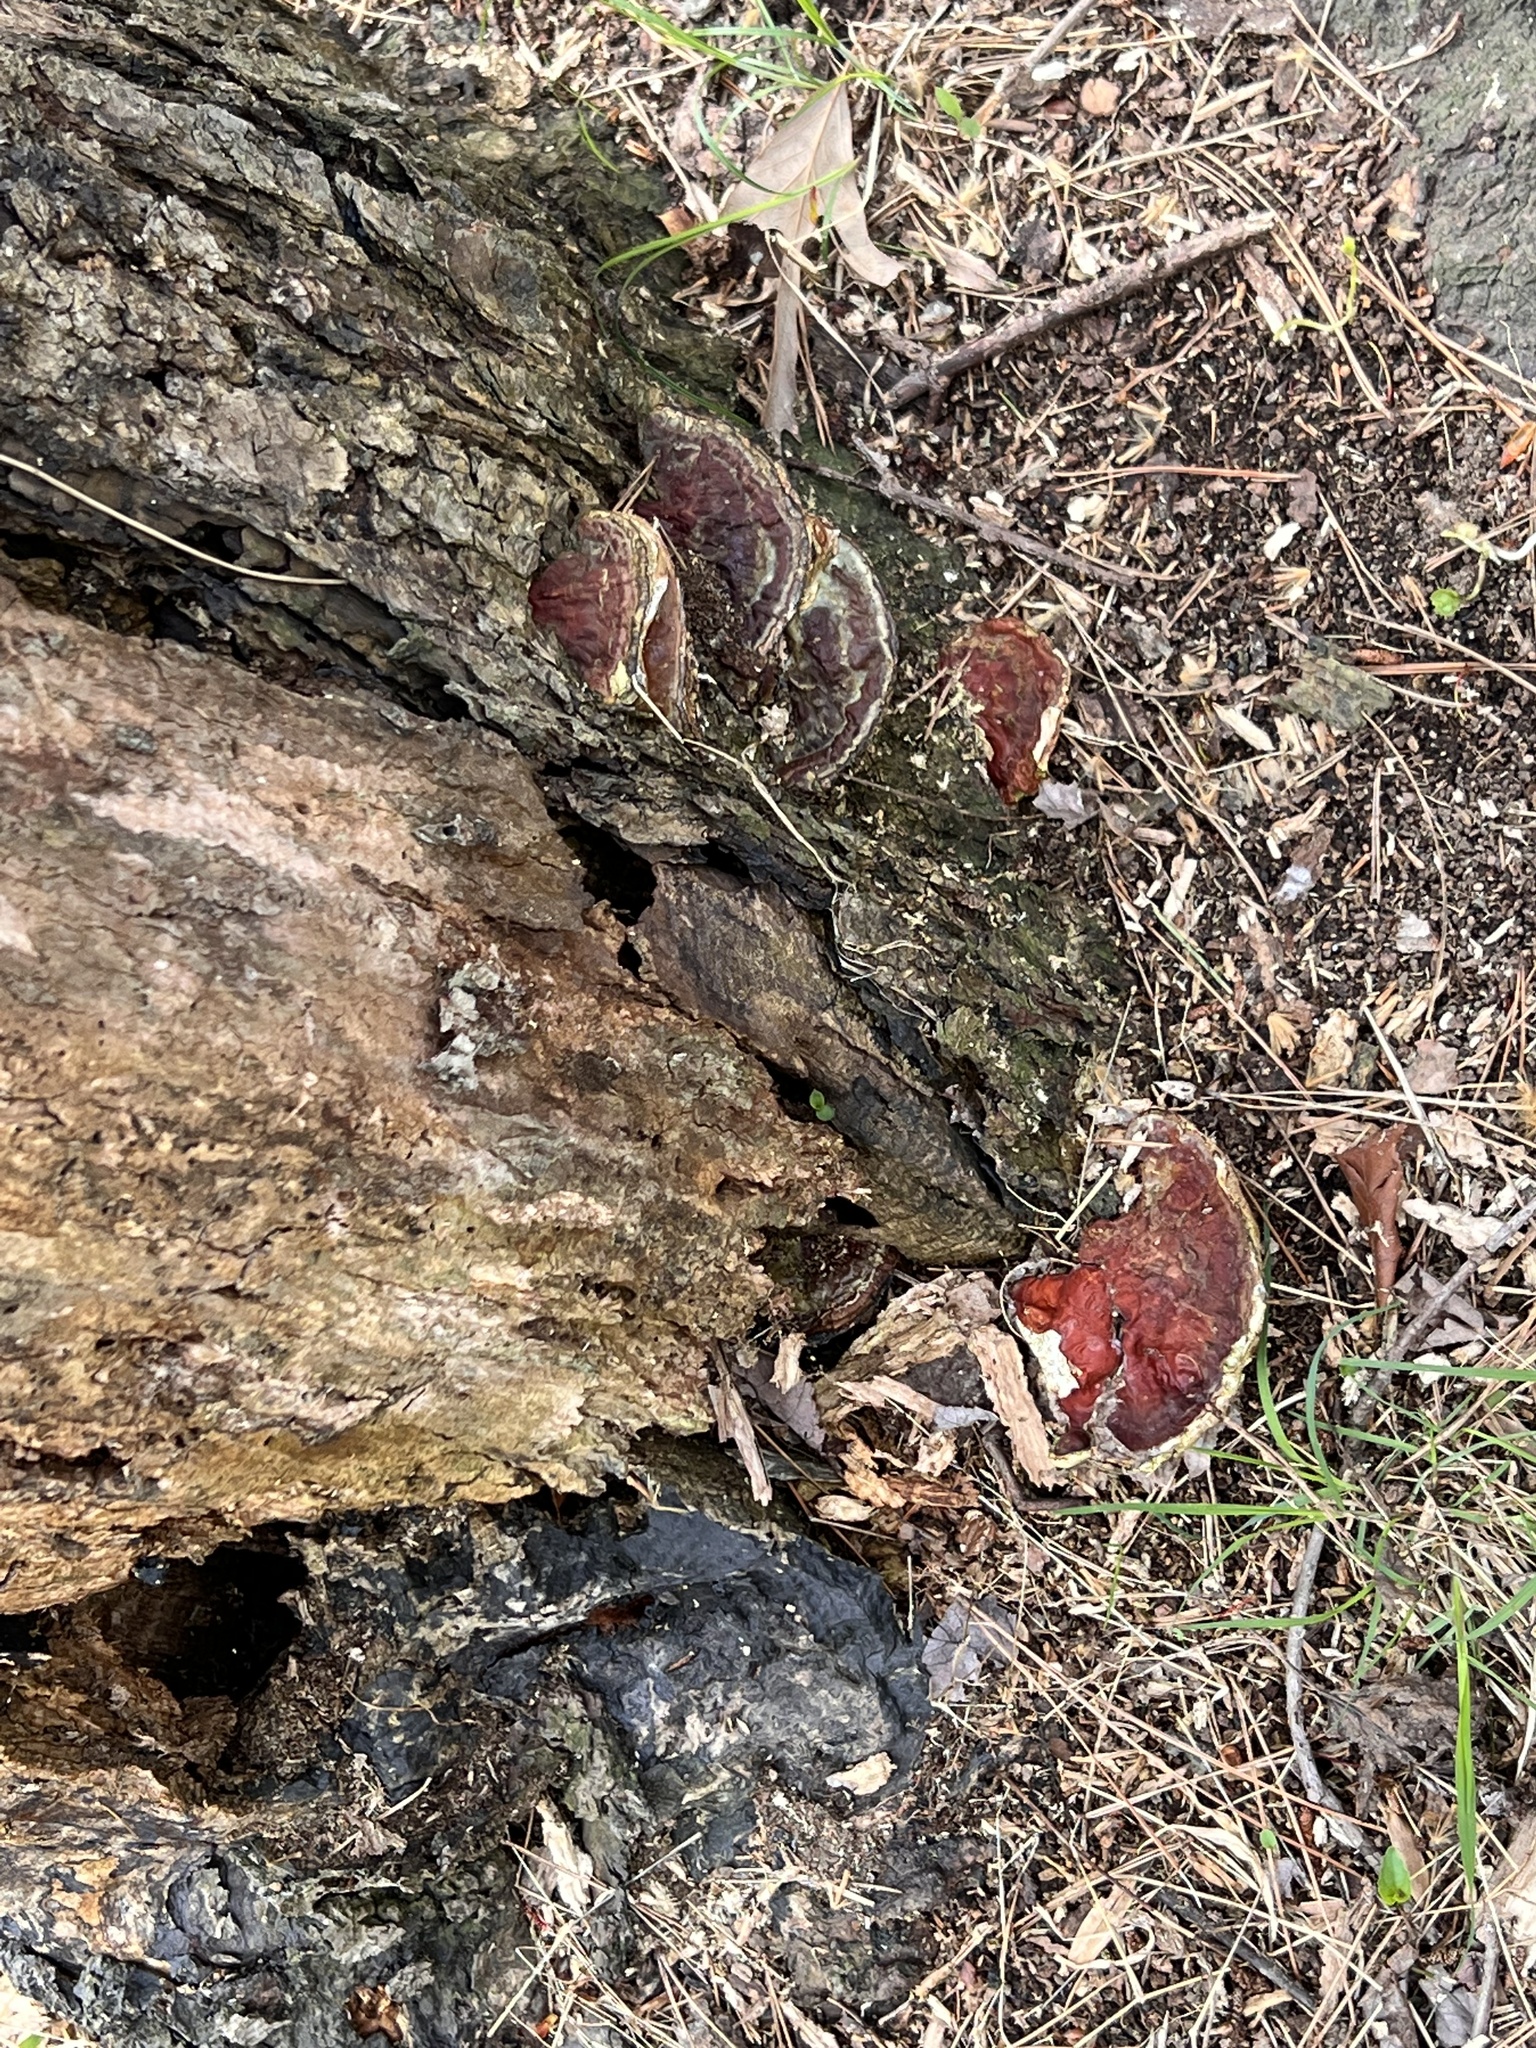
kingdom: Fungi
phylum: Basidiomycota
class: Agaricomycetes
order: Polyporales
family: Polyporaceae
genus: Ganoderma
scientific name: Ganoderma resinaceum
